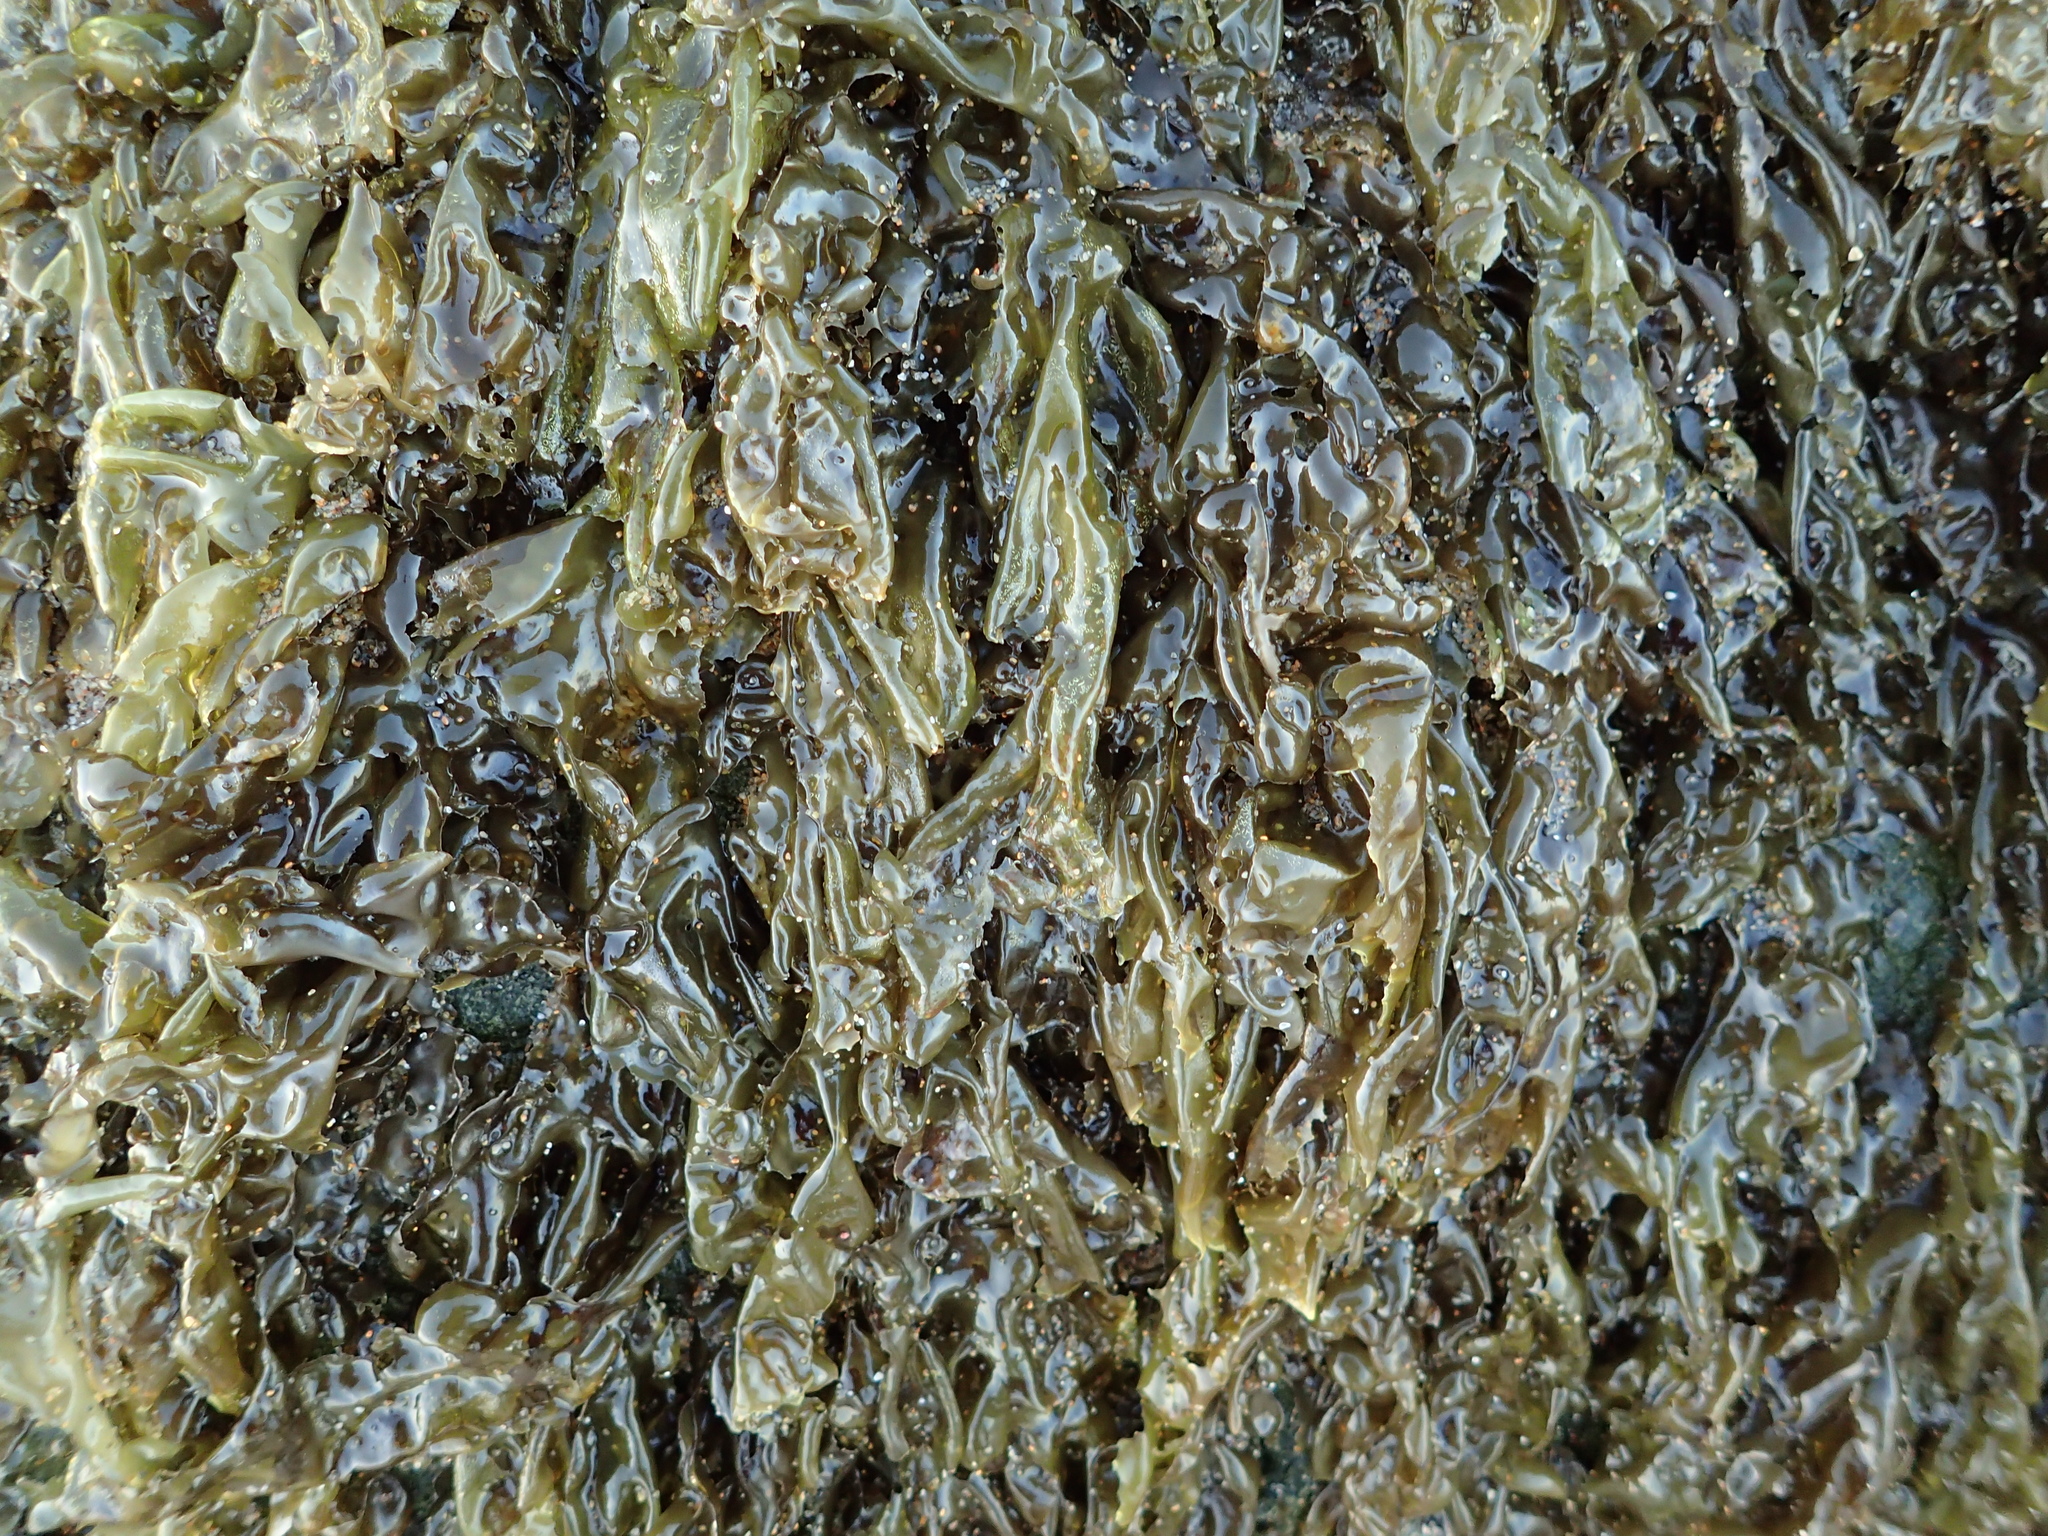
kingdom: Plantae
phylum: Rhodophyta
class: Bangiophyceae
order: Bangiales
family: Bangiaceae
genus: Neoporphyra
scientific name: Neoporphyra perforata
